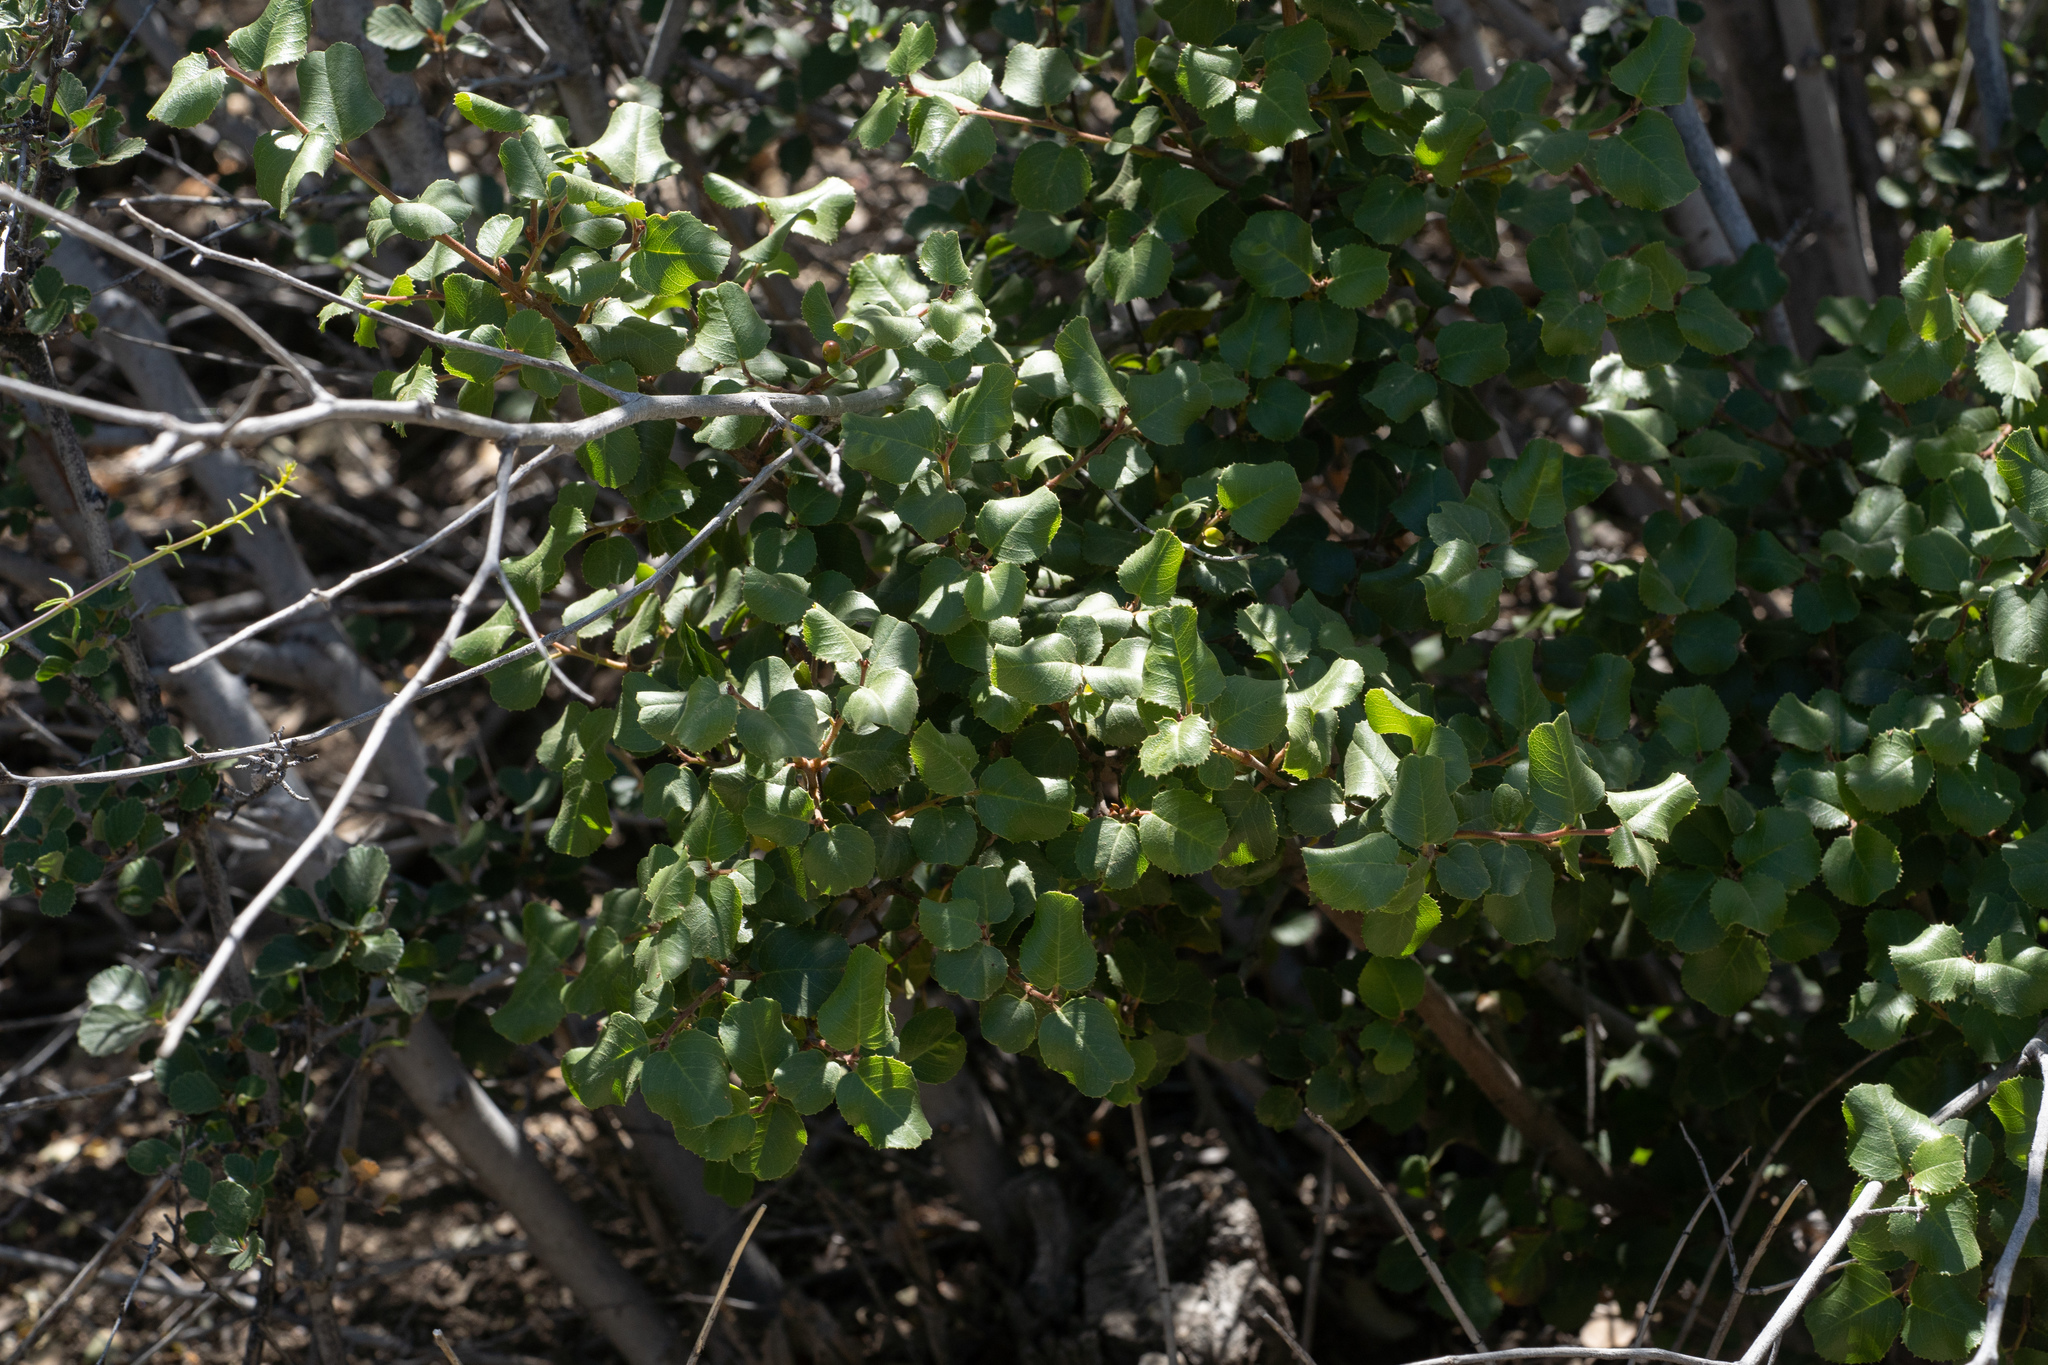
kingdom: Plantae
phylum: Tracheophyta
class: Magnoliopsida
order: Rosales
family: Rhamnaceae
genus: Endotropis
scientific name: Endotropis crocea
